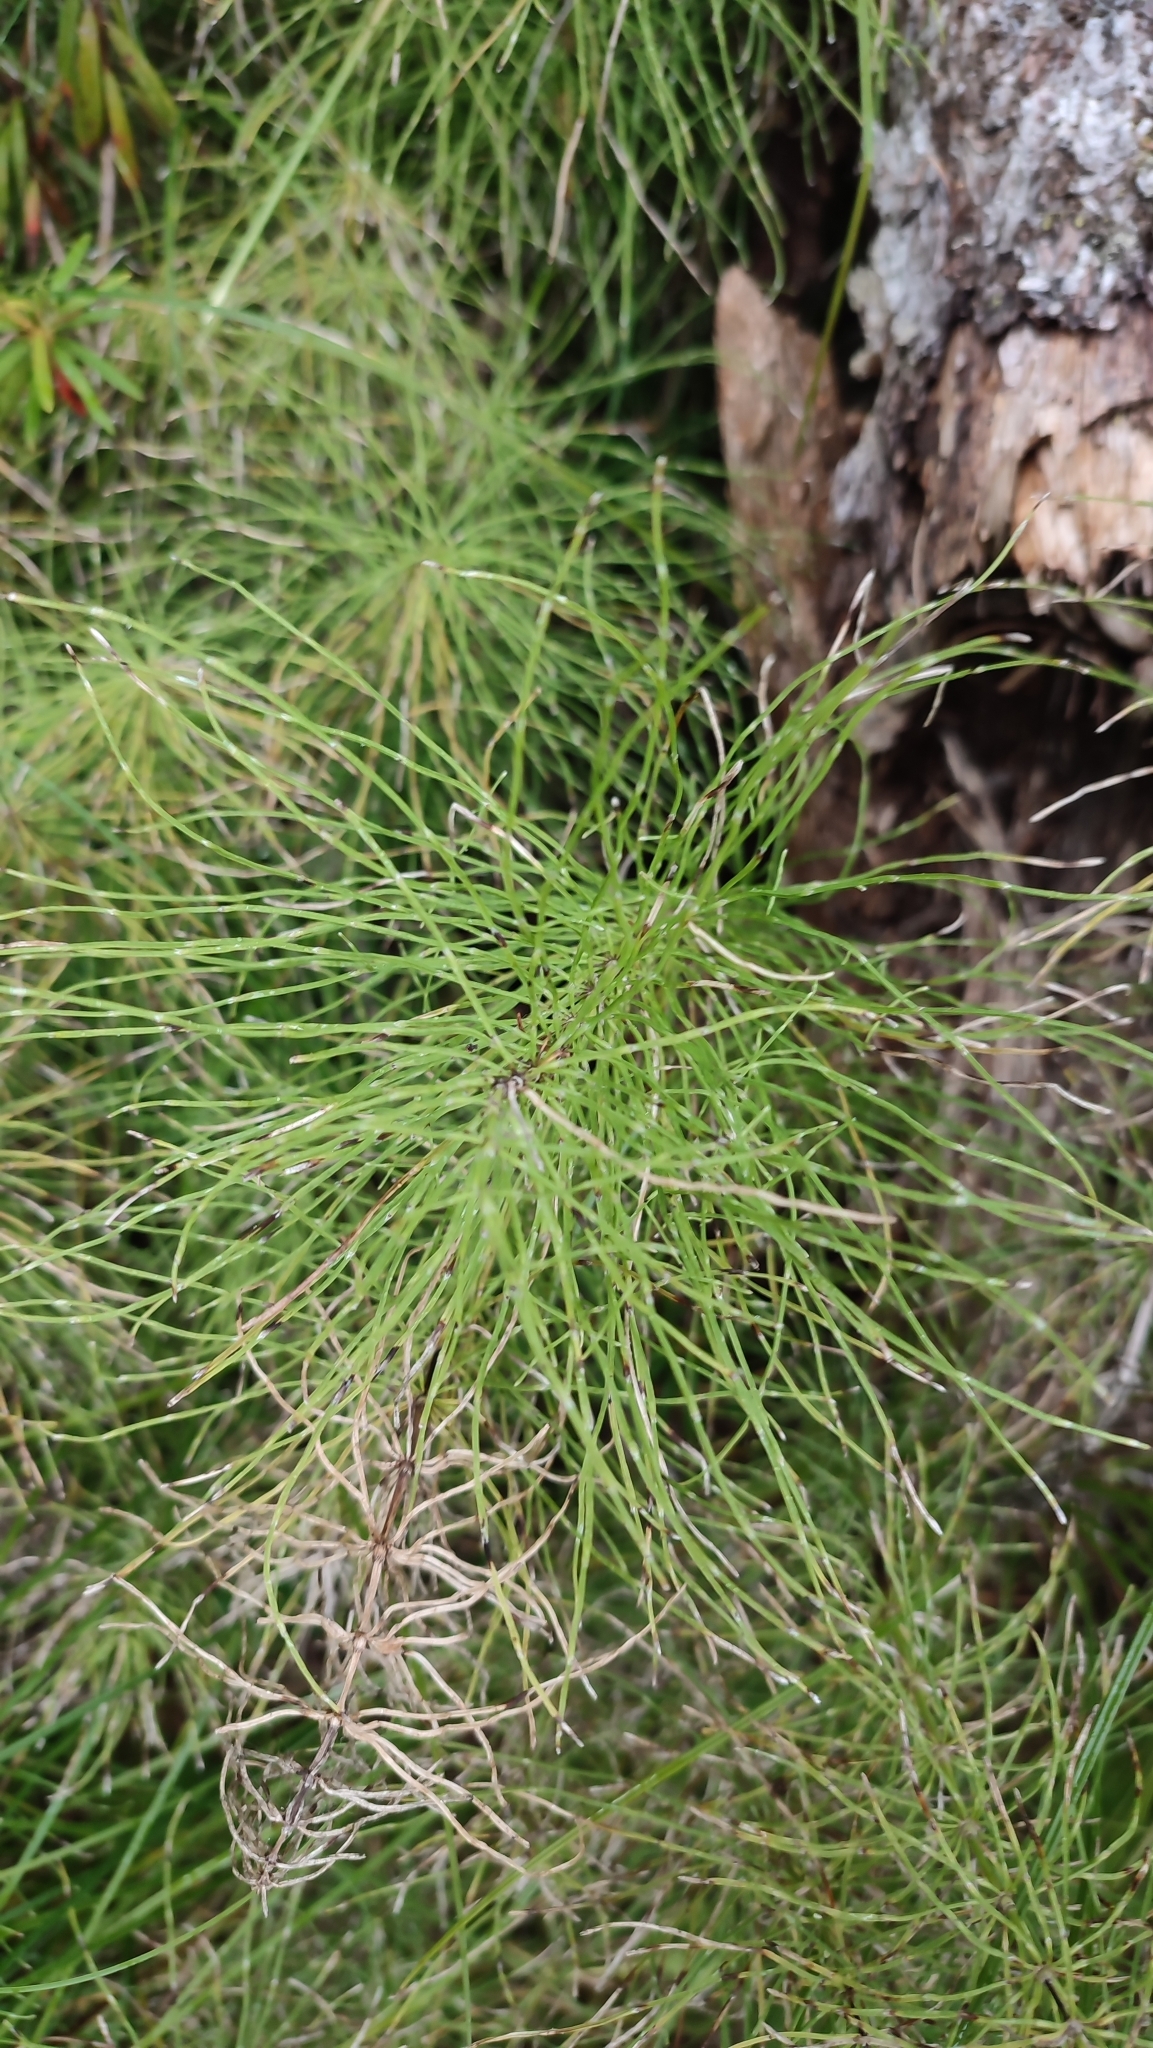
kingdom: Plantae
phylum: Tracheophyta
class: Polypodiopsida
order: Equisetales
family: Equisetaceae
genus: Equisetum
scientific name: Equisetum pratense
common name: Meadow horsetail
